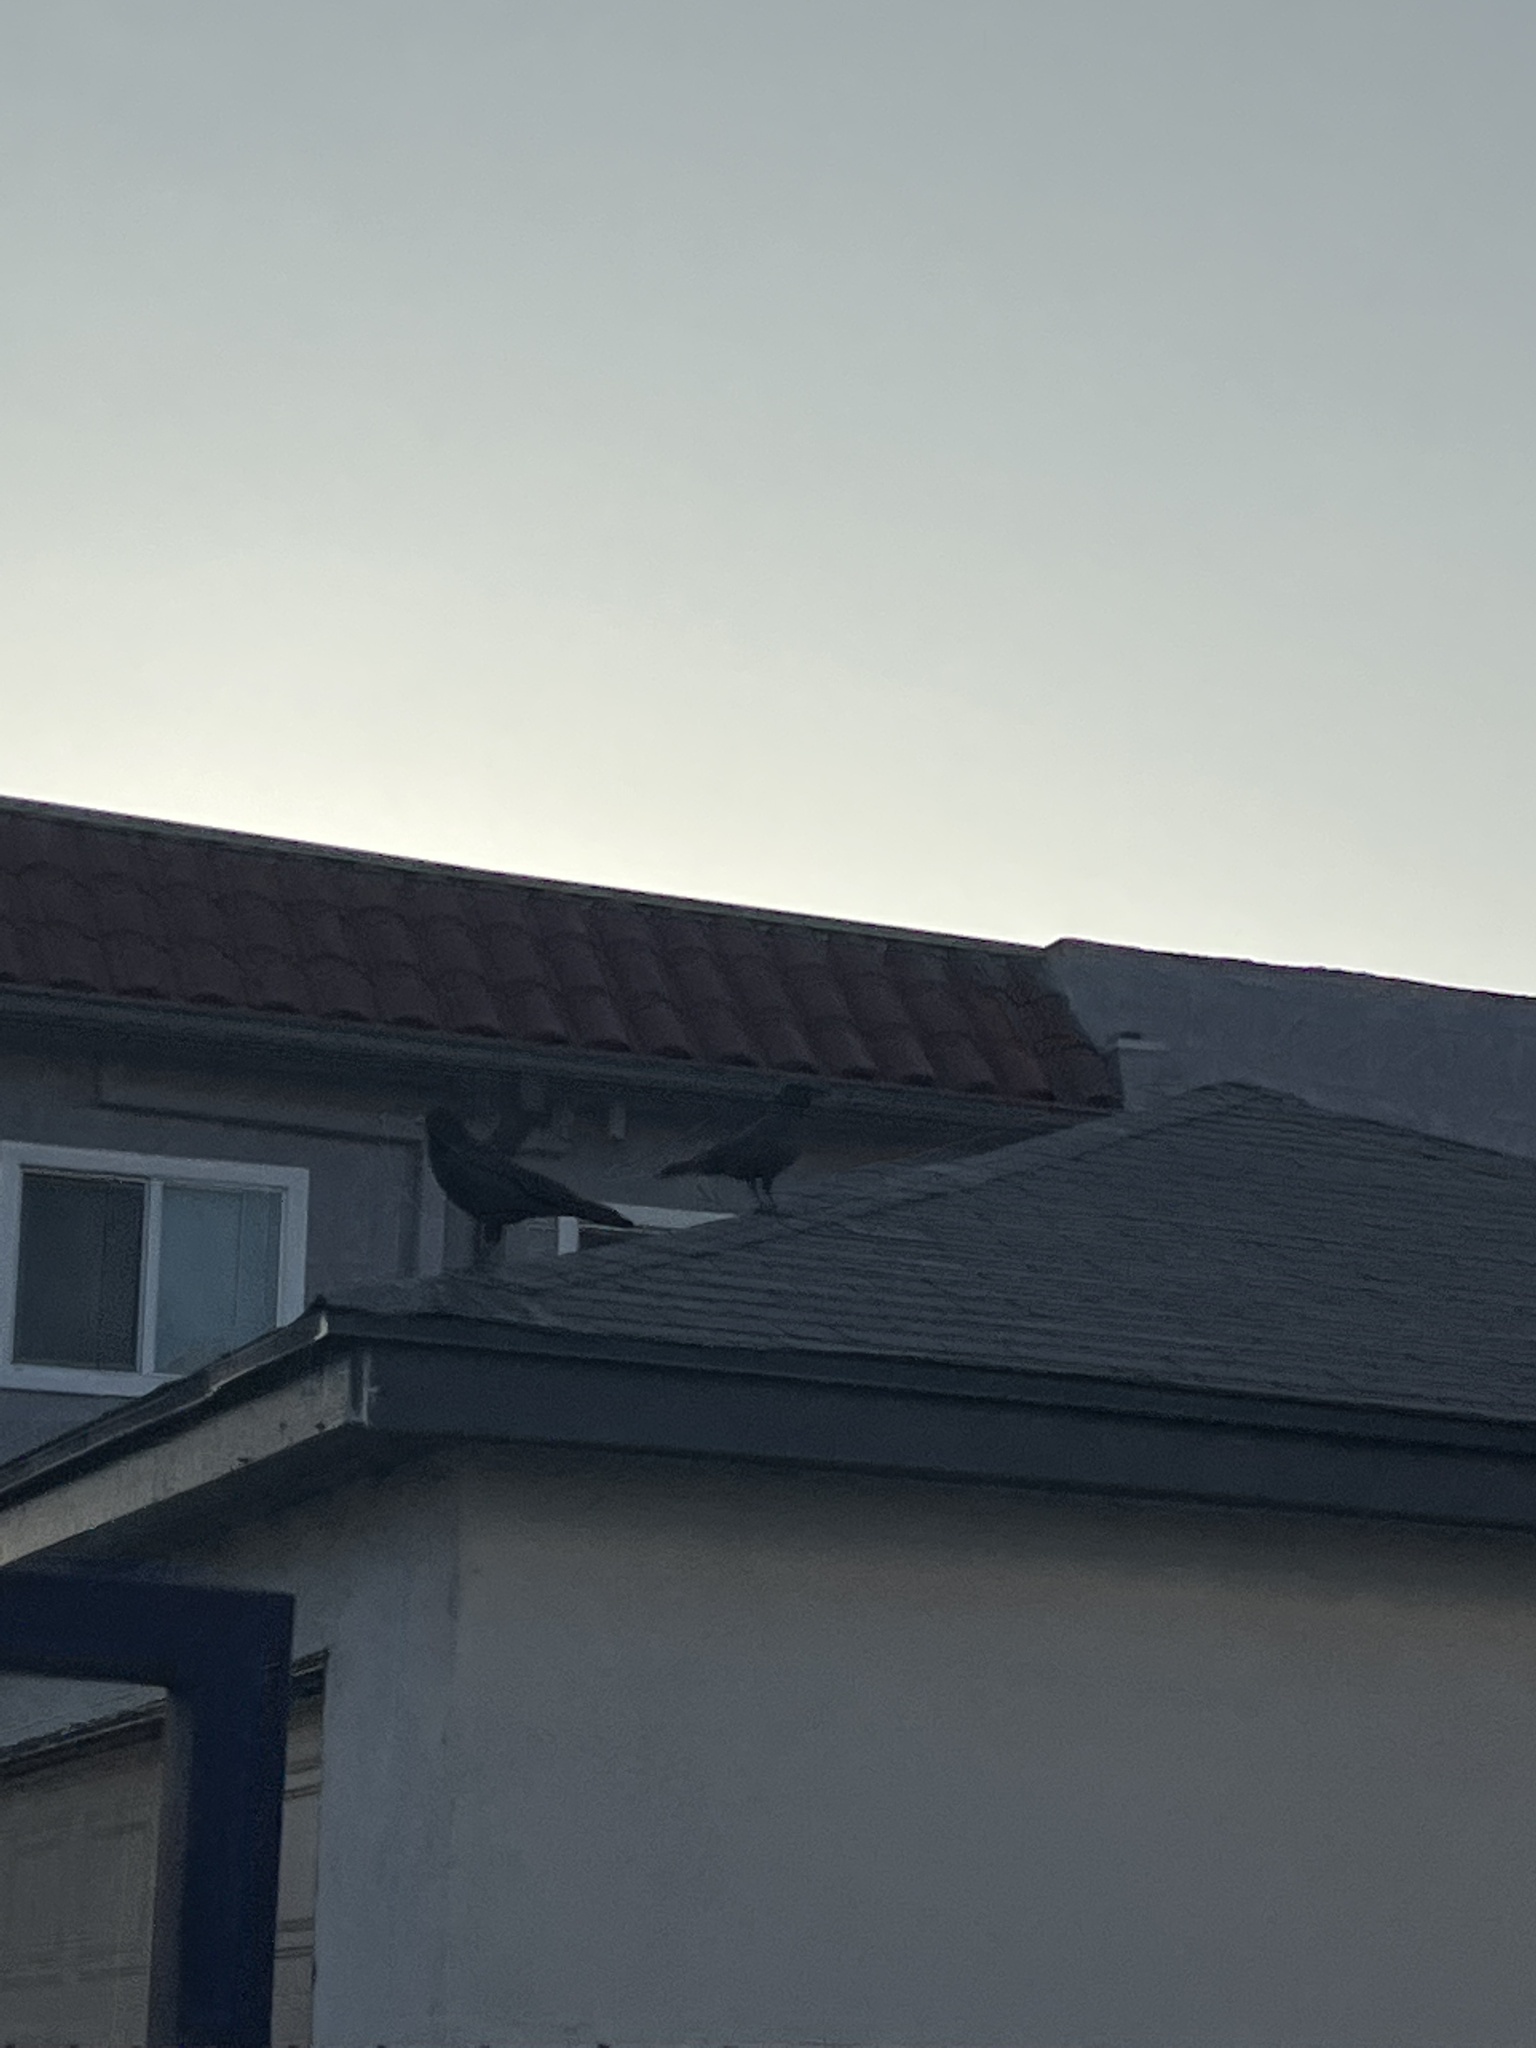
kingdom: Animalia
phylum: Chordata
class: Aves
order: Passeriformes
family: Corvidae
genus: Corvus
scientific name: Corvus brachyrhynchos
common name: American crow
